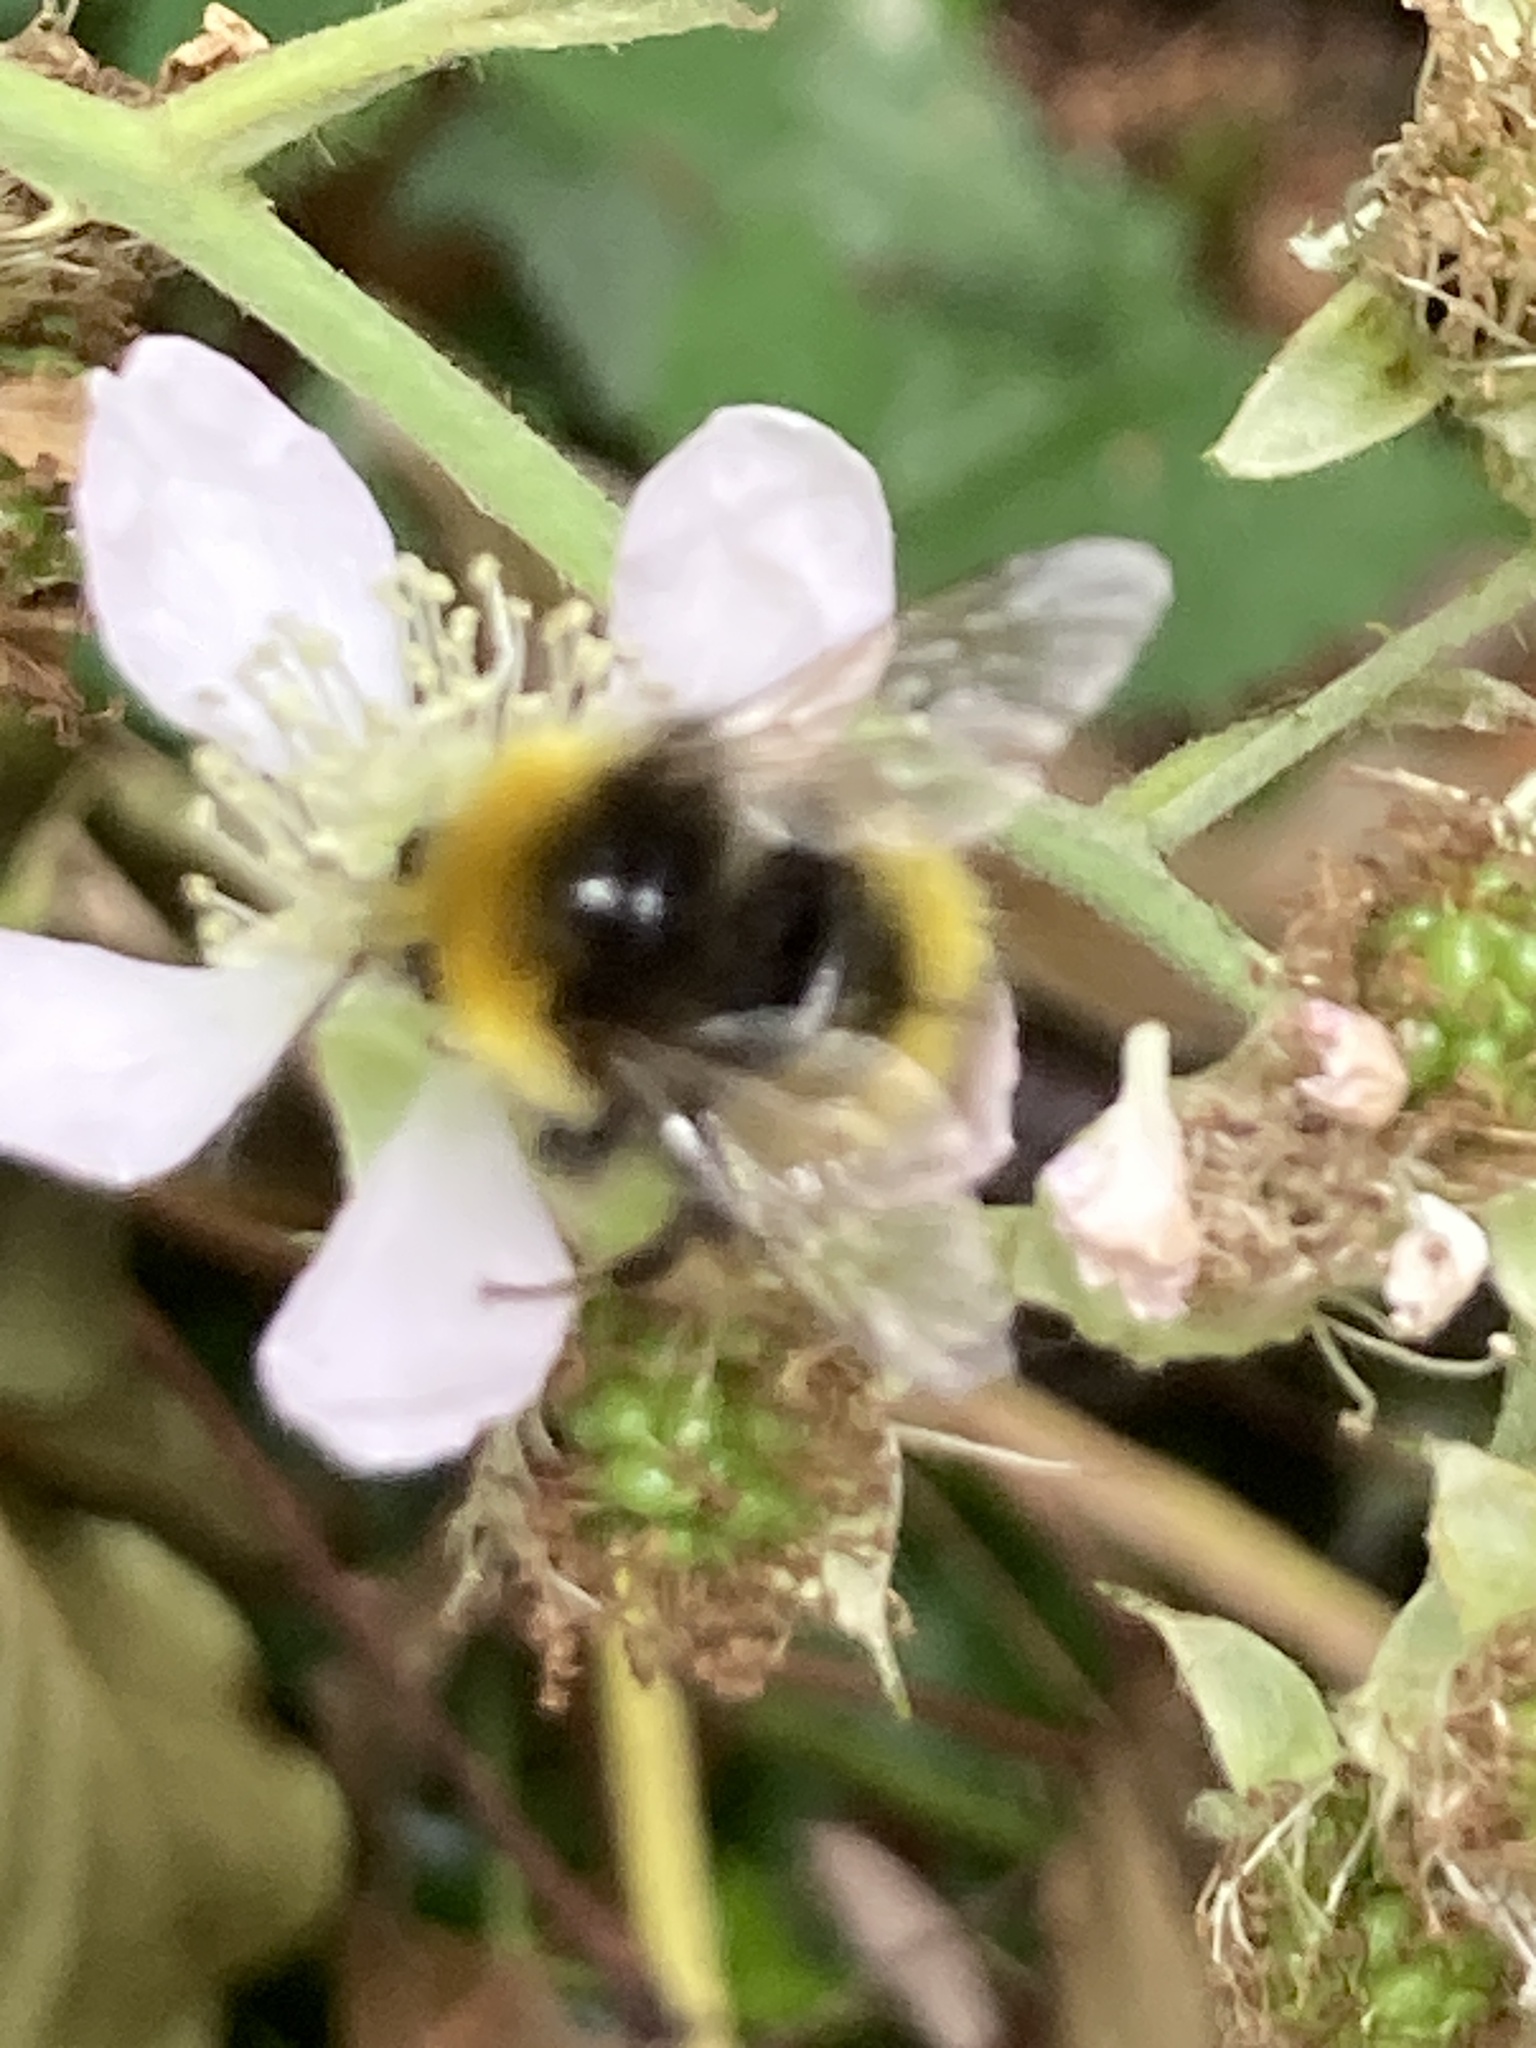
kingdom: Animalia
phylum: Arthropoda
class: Insecta
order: Hymenoptera
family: Apidae
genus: Bombus
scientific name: Bombus pratorum
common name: Early humble-bee
